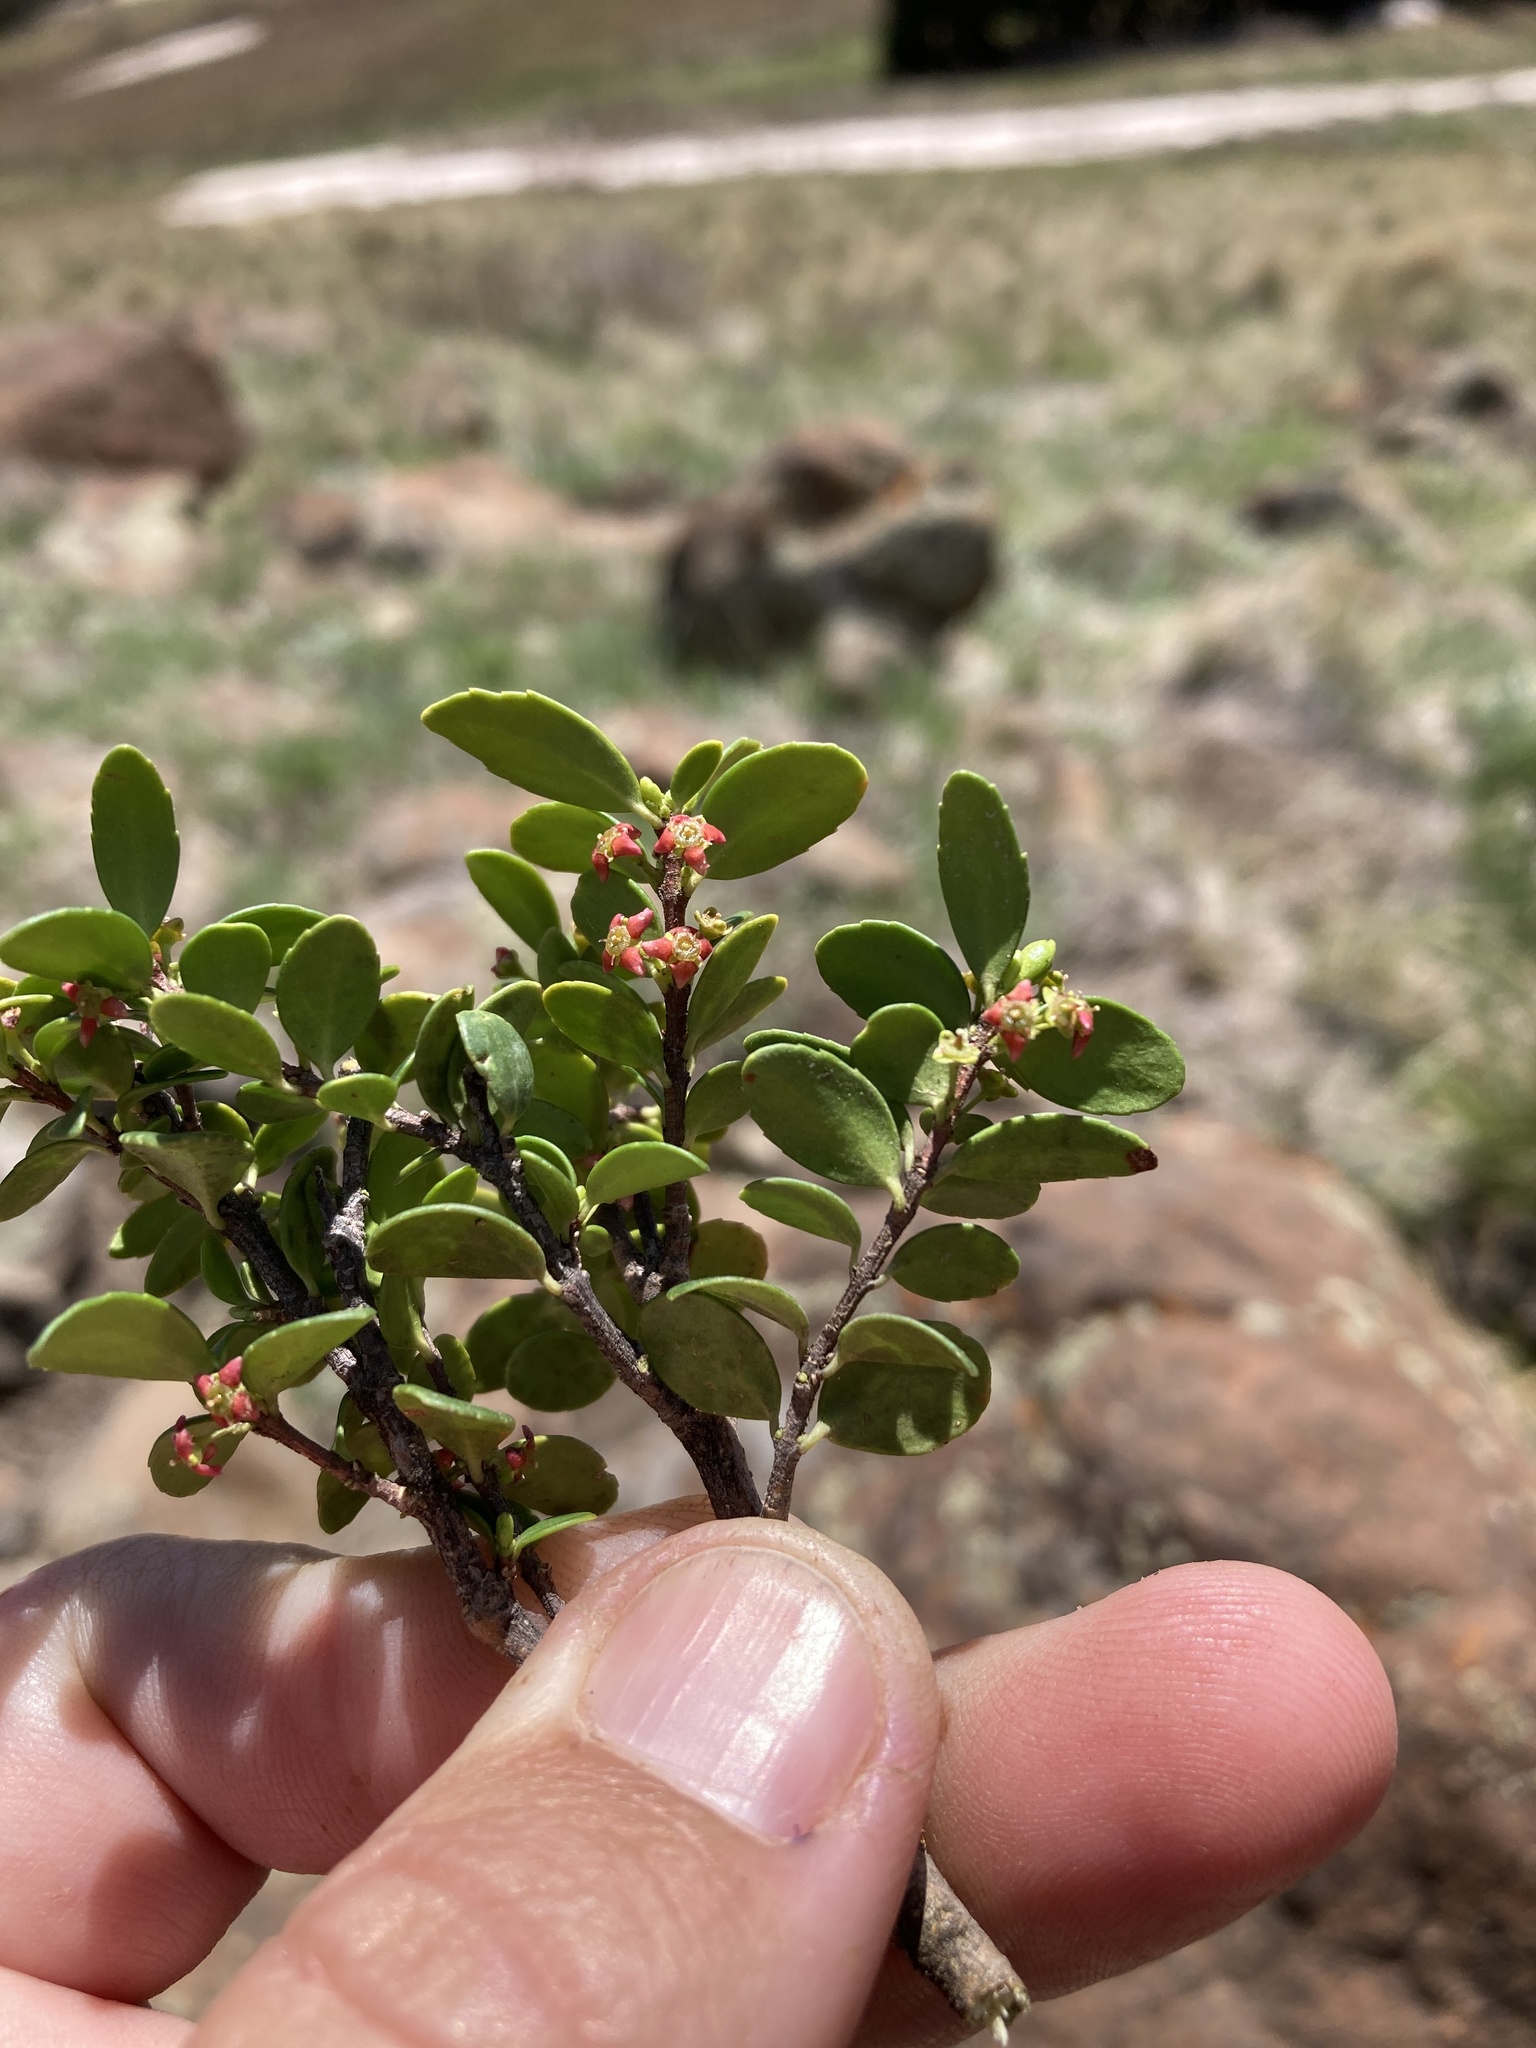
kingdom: Plantae
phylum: Tracheophyta
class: Magnoliopsida
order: Celastrales
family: Celastraceae
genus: Paxistima
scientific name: Paxistima myrsinites
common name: Mountain-lover
